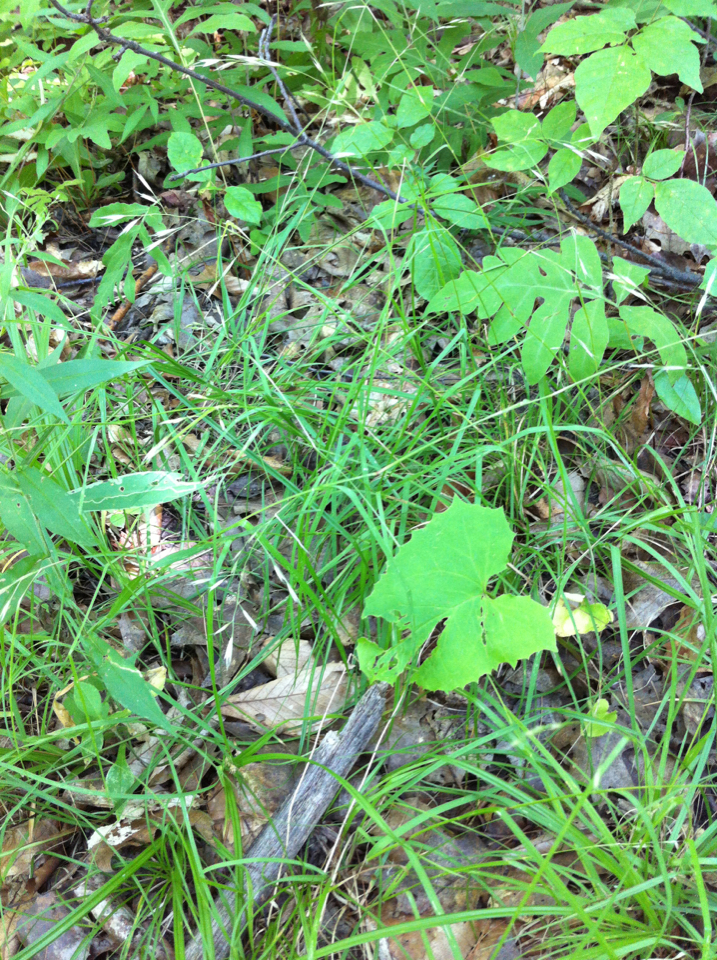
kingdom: Plantae
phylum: Tracheophyta
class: Polypodiopsida
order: Polypodiales
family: Onocleaceae
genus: Onoclea
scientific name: Onoclea sensibilis
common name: Sensitive fern
